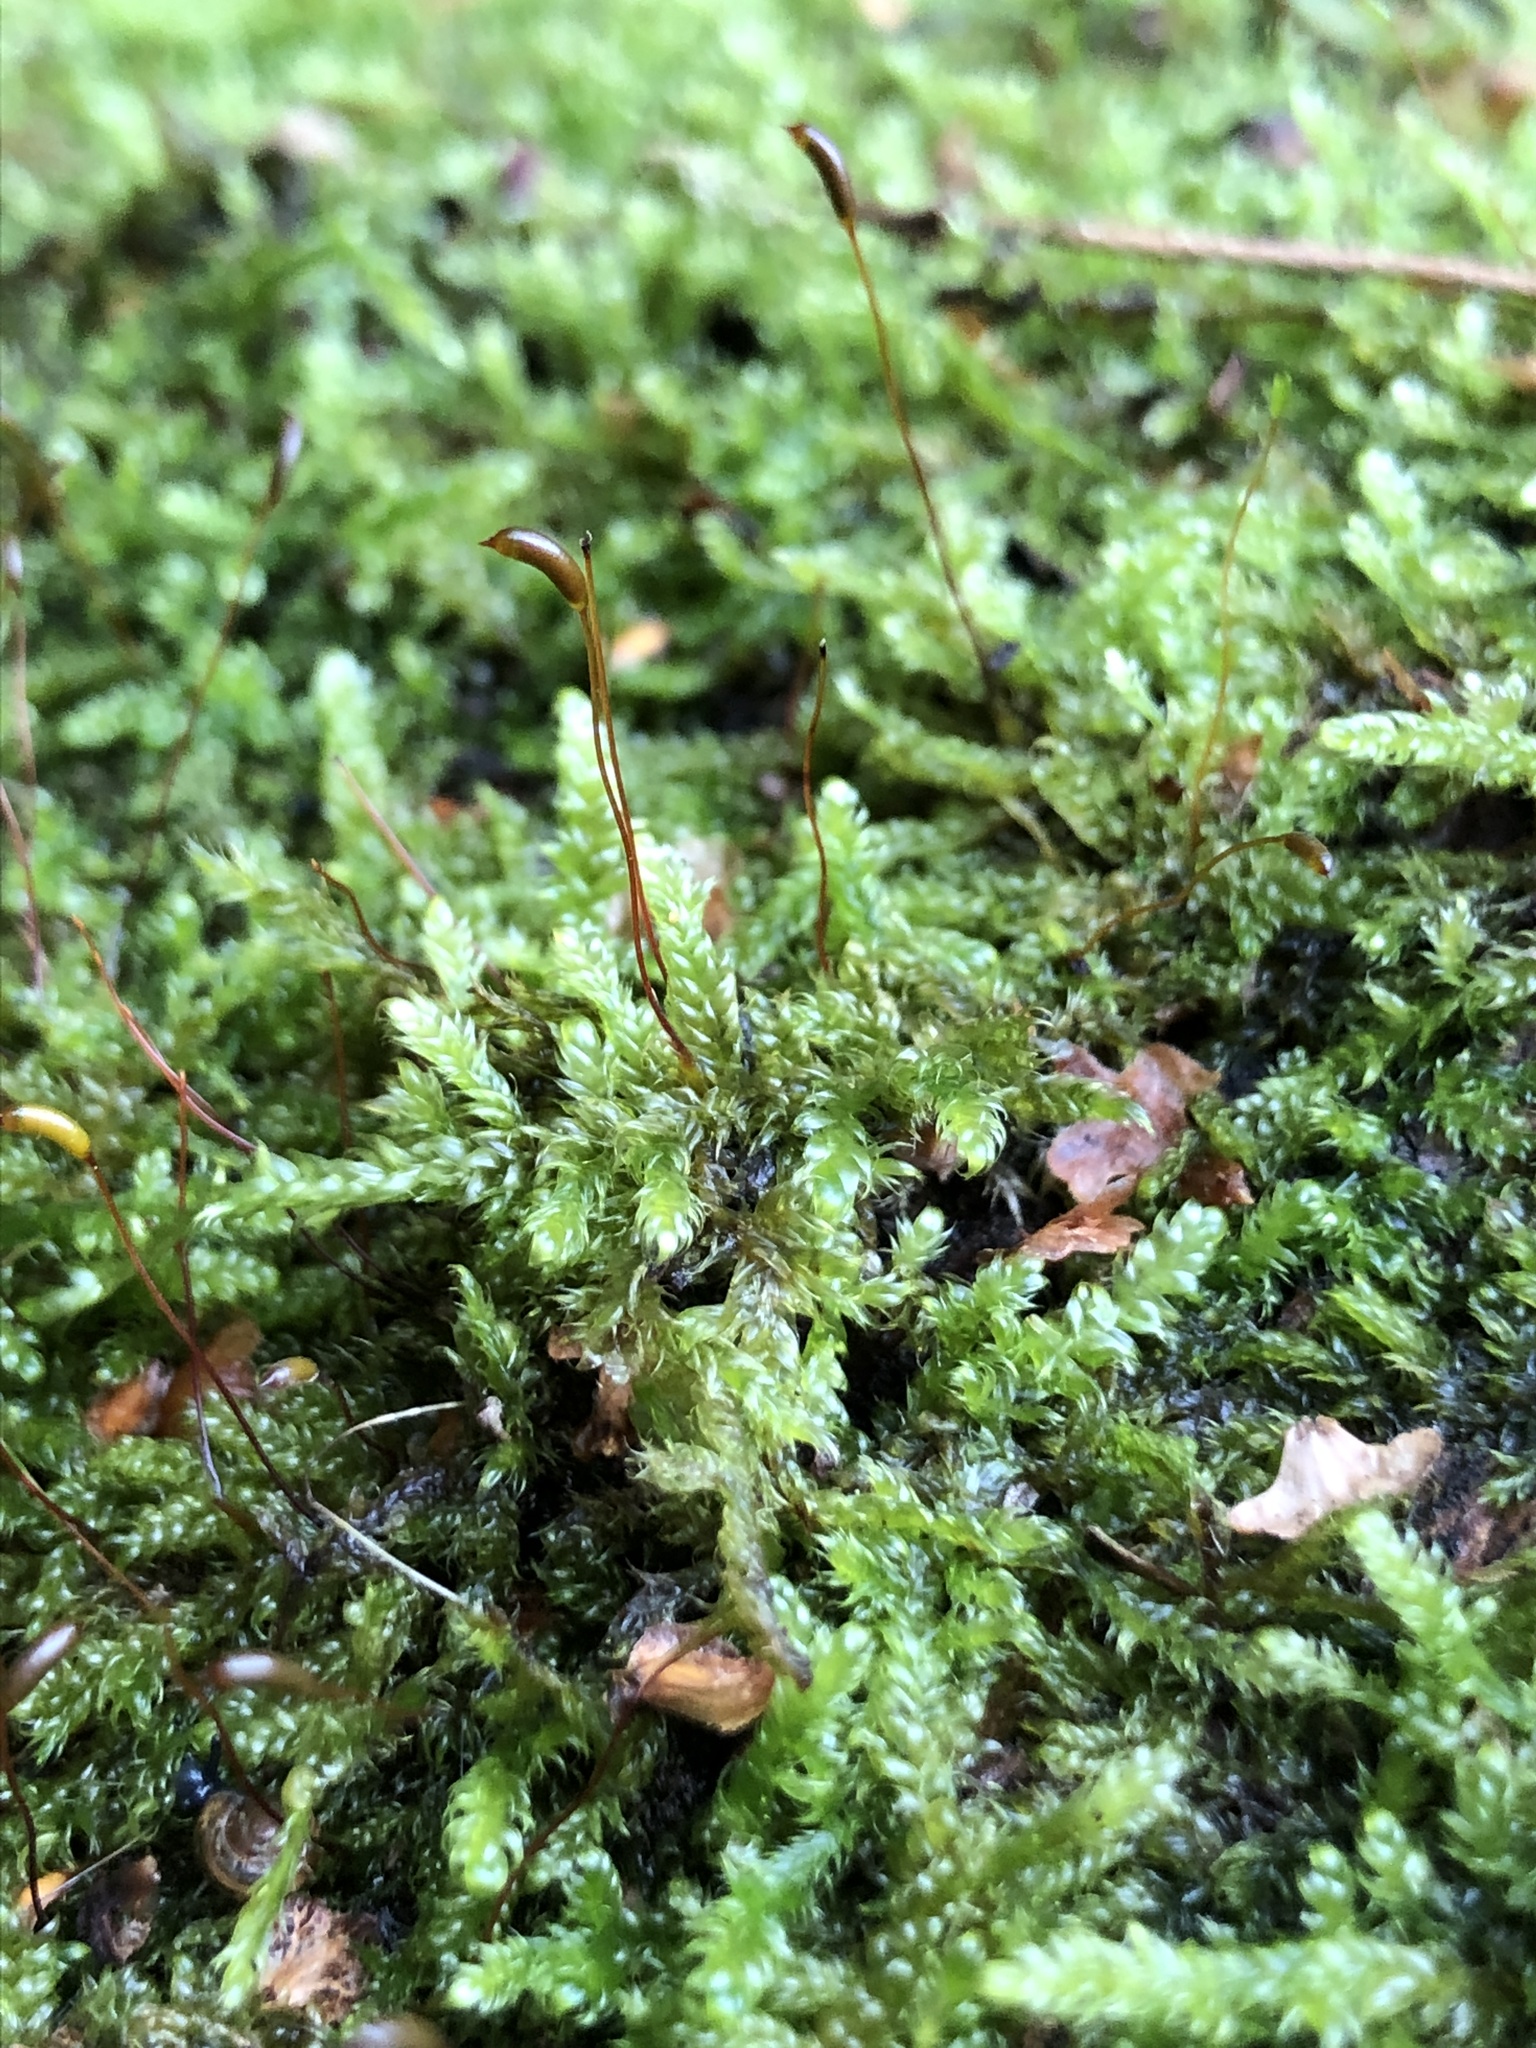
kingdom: Plantae
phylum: Bryophyta
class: Bryopsida
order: Hypnales
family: Hypnaceae
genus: Hypnum
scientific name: Hypnum cupressiforme
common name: Cypress-leaved plait-moss
